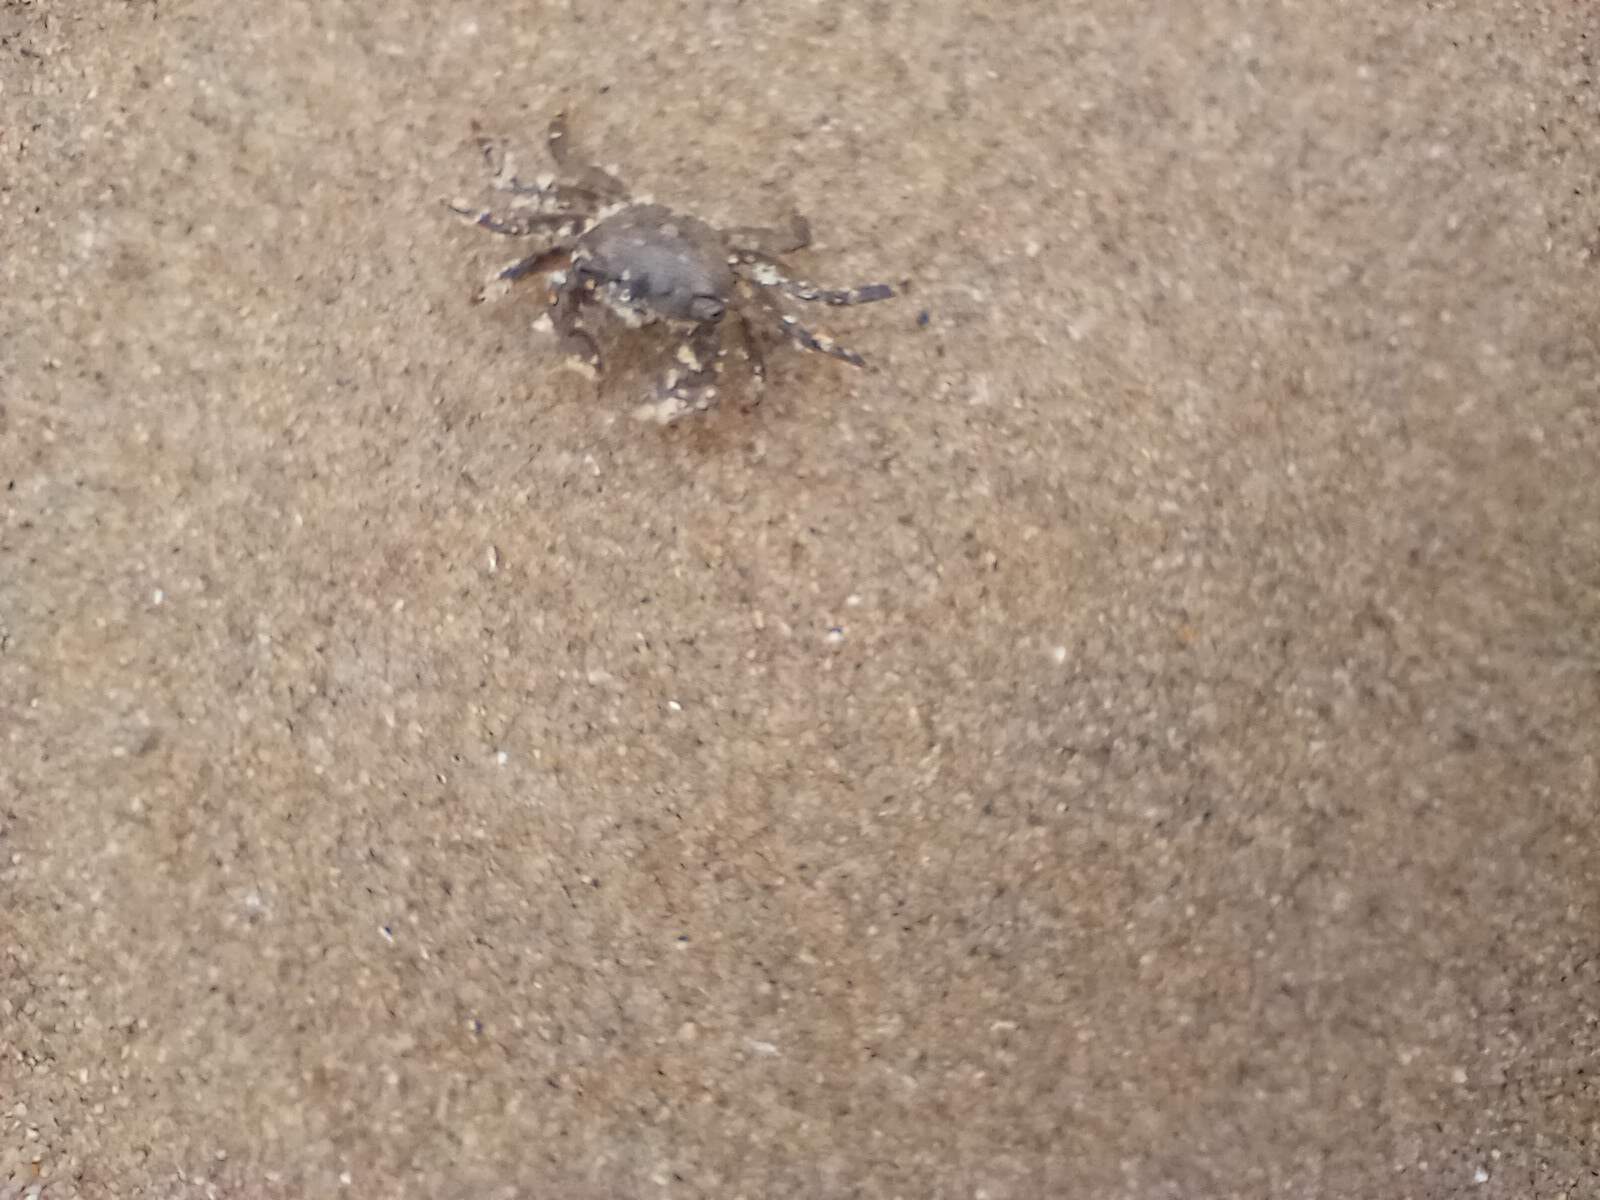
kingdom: Animalia
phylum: Arthropoda
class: Malacostraca
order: Decapoda
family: Grapsidae
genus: Pachygrapsus
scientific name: Pachygrapsus crassipes
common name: Striped shore crab
